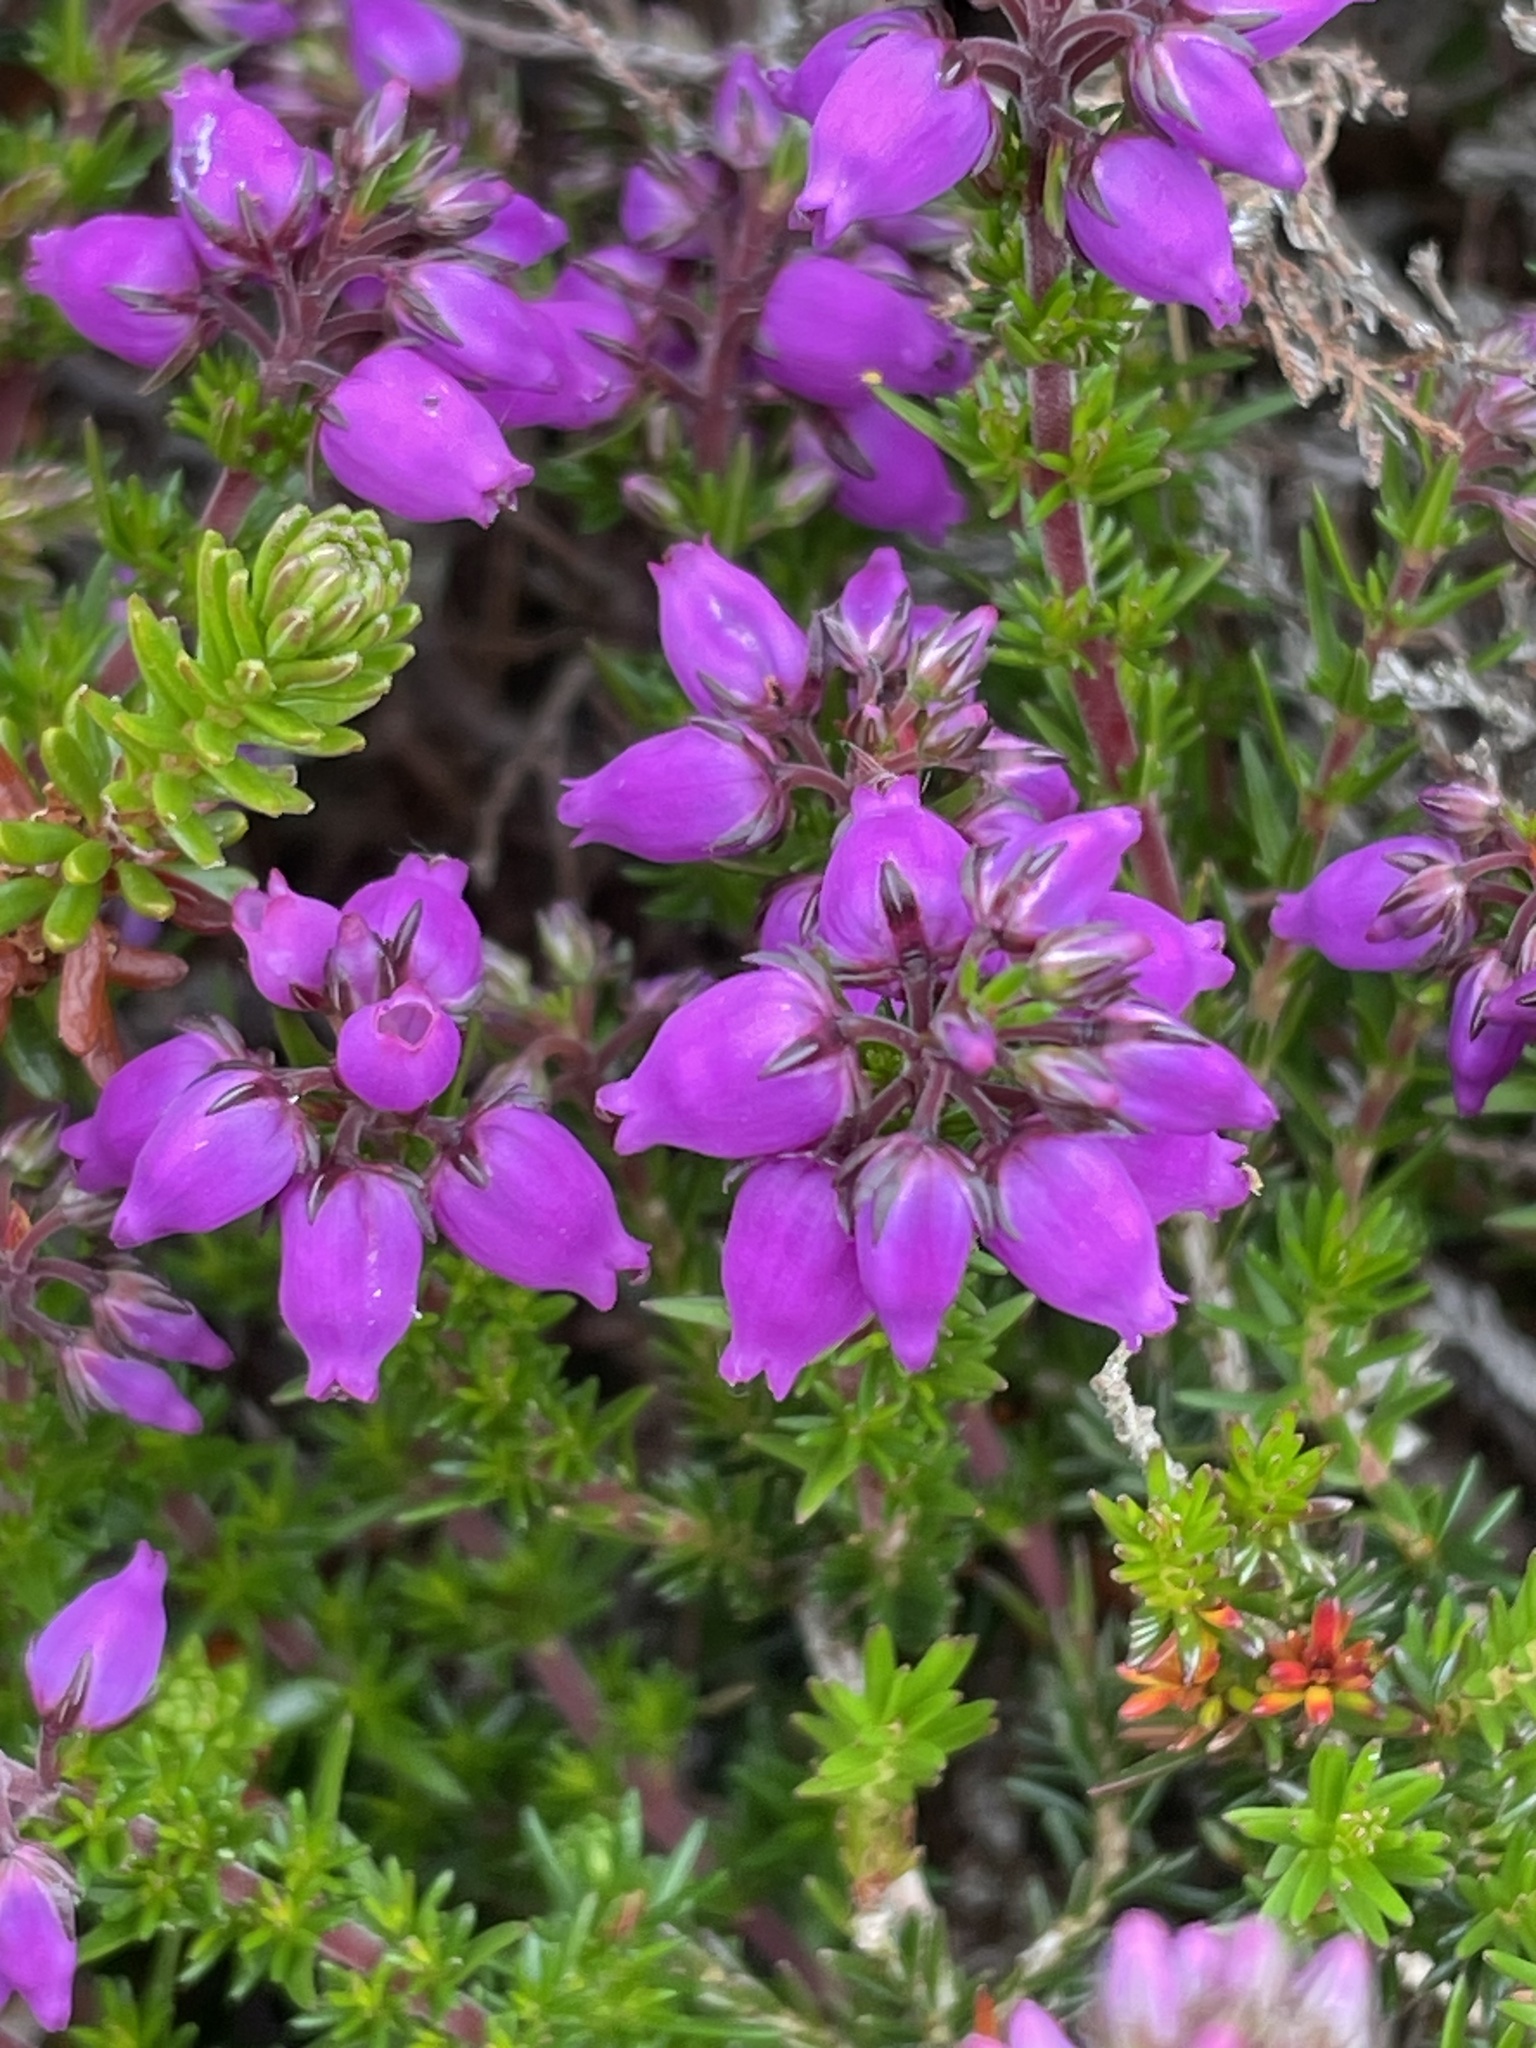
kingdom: Plantae
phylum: Tracheophyta
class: Magnoliopsida
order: Ericales
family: Ericaceae
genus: Erica
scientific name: Erica cinerea
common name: Bell heather
